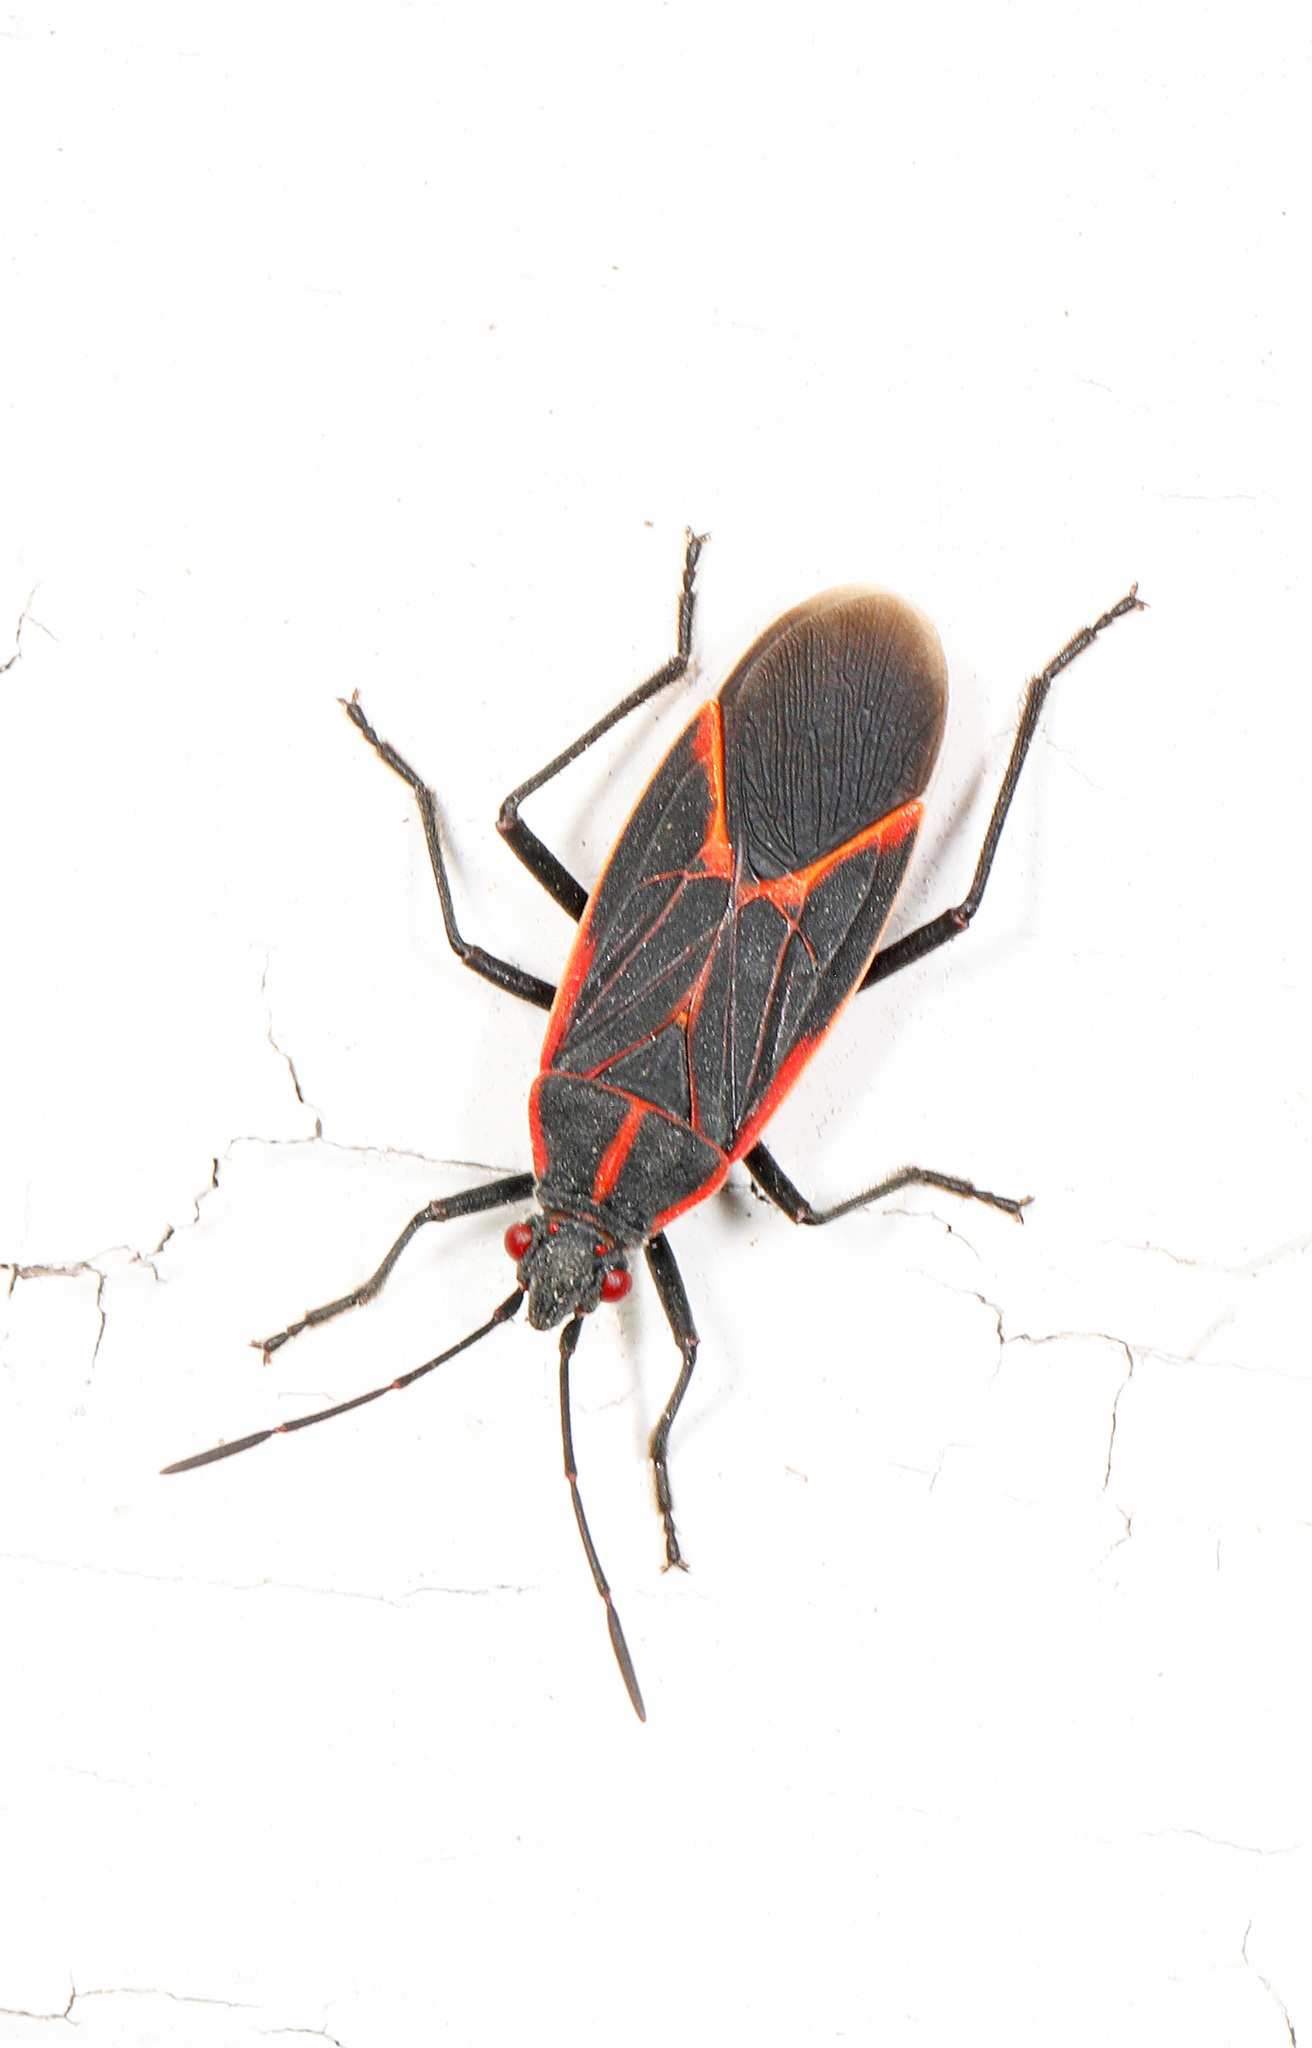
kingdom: Animalia
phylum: Arthropoda
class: Insecta
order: Hemiptera
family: Rhopalidae
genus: Boisea
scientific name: Boisea trivittata
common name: Boxelder bug
